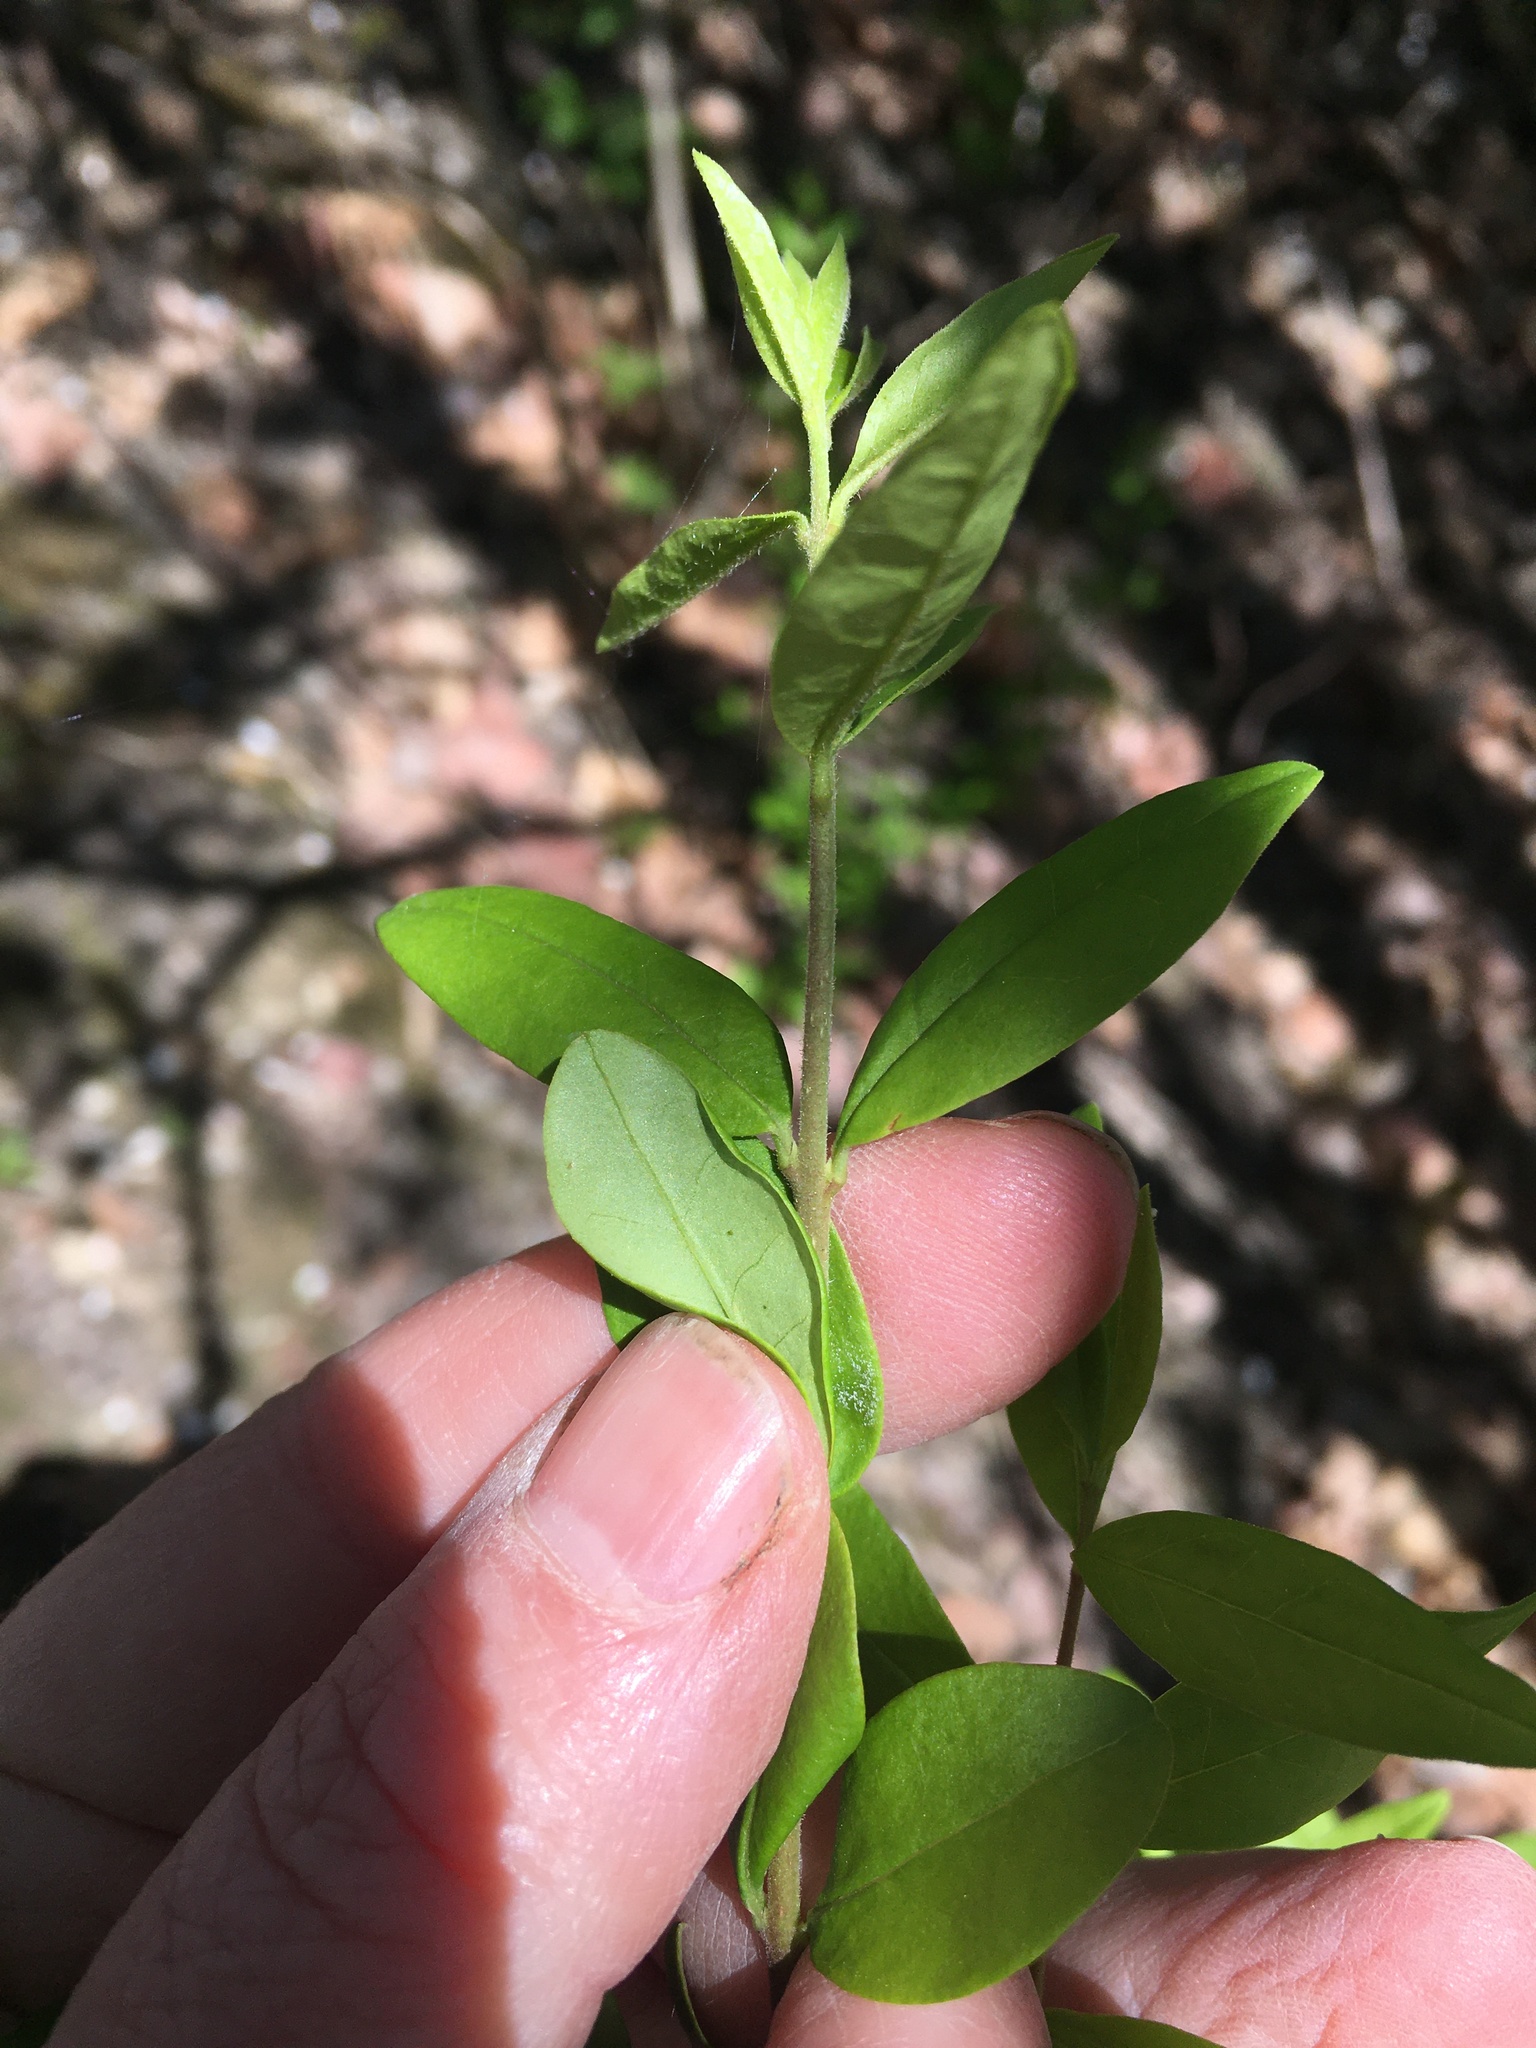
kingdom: Plantae
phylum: Tracheophyta
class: Magnoliopsida
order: Lamiales
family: Oleaceae
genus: Ligustrum
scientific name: Ligustrum obtusifolium
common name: Border privet
